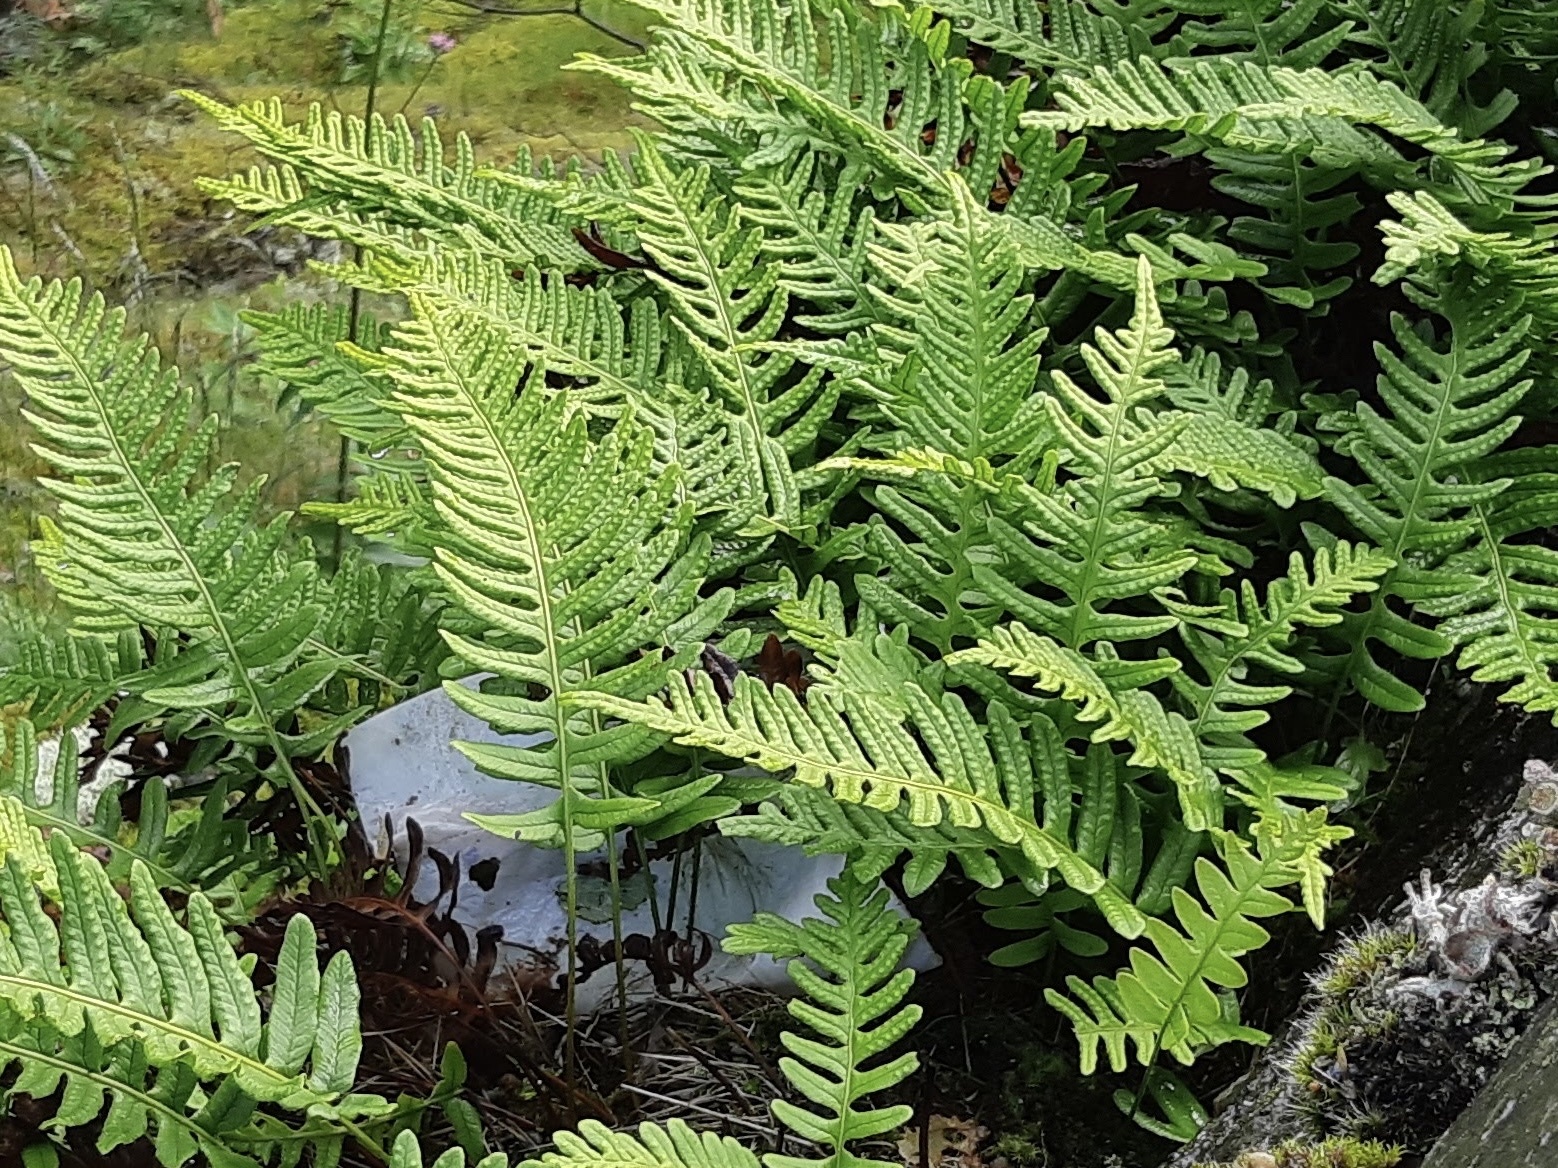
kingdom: Plantae
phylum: Tracheophyta
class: Polypodiopsida
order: Polypodiales
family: Polypodiaceae
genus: Polypodium
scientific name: Polypodium vulgare
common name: Common polypody
